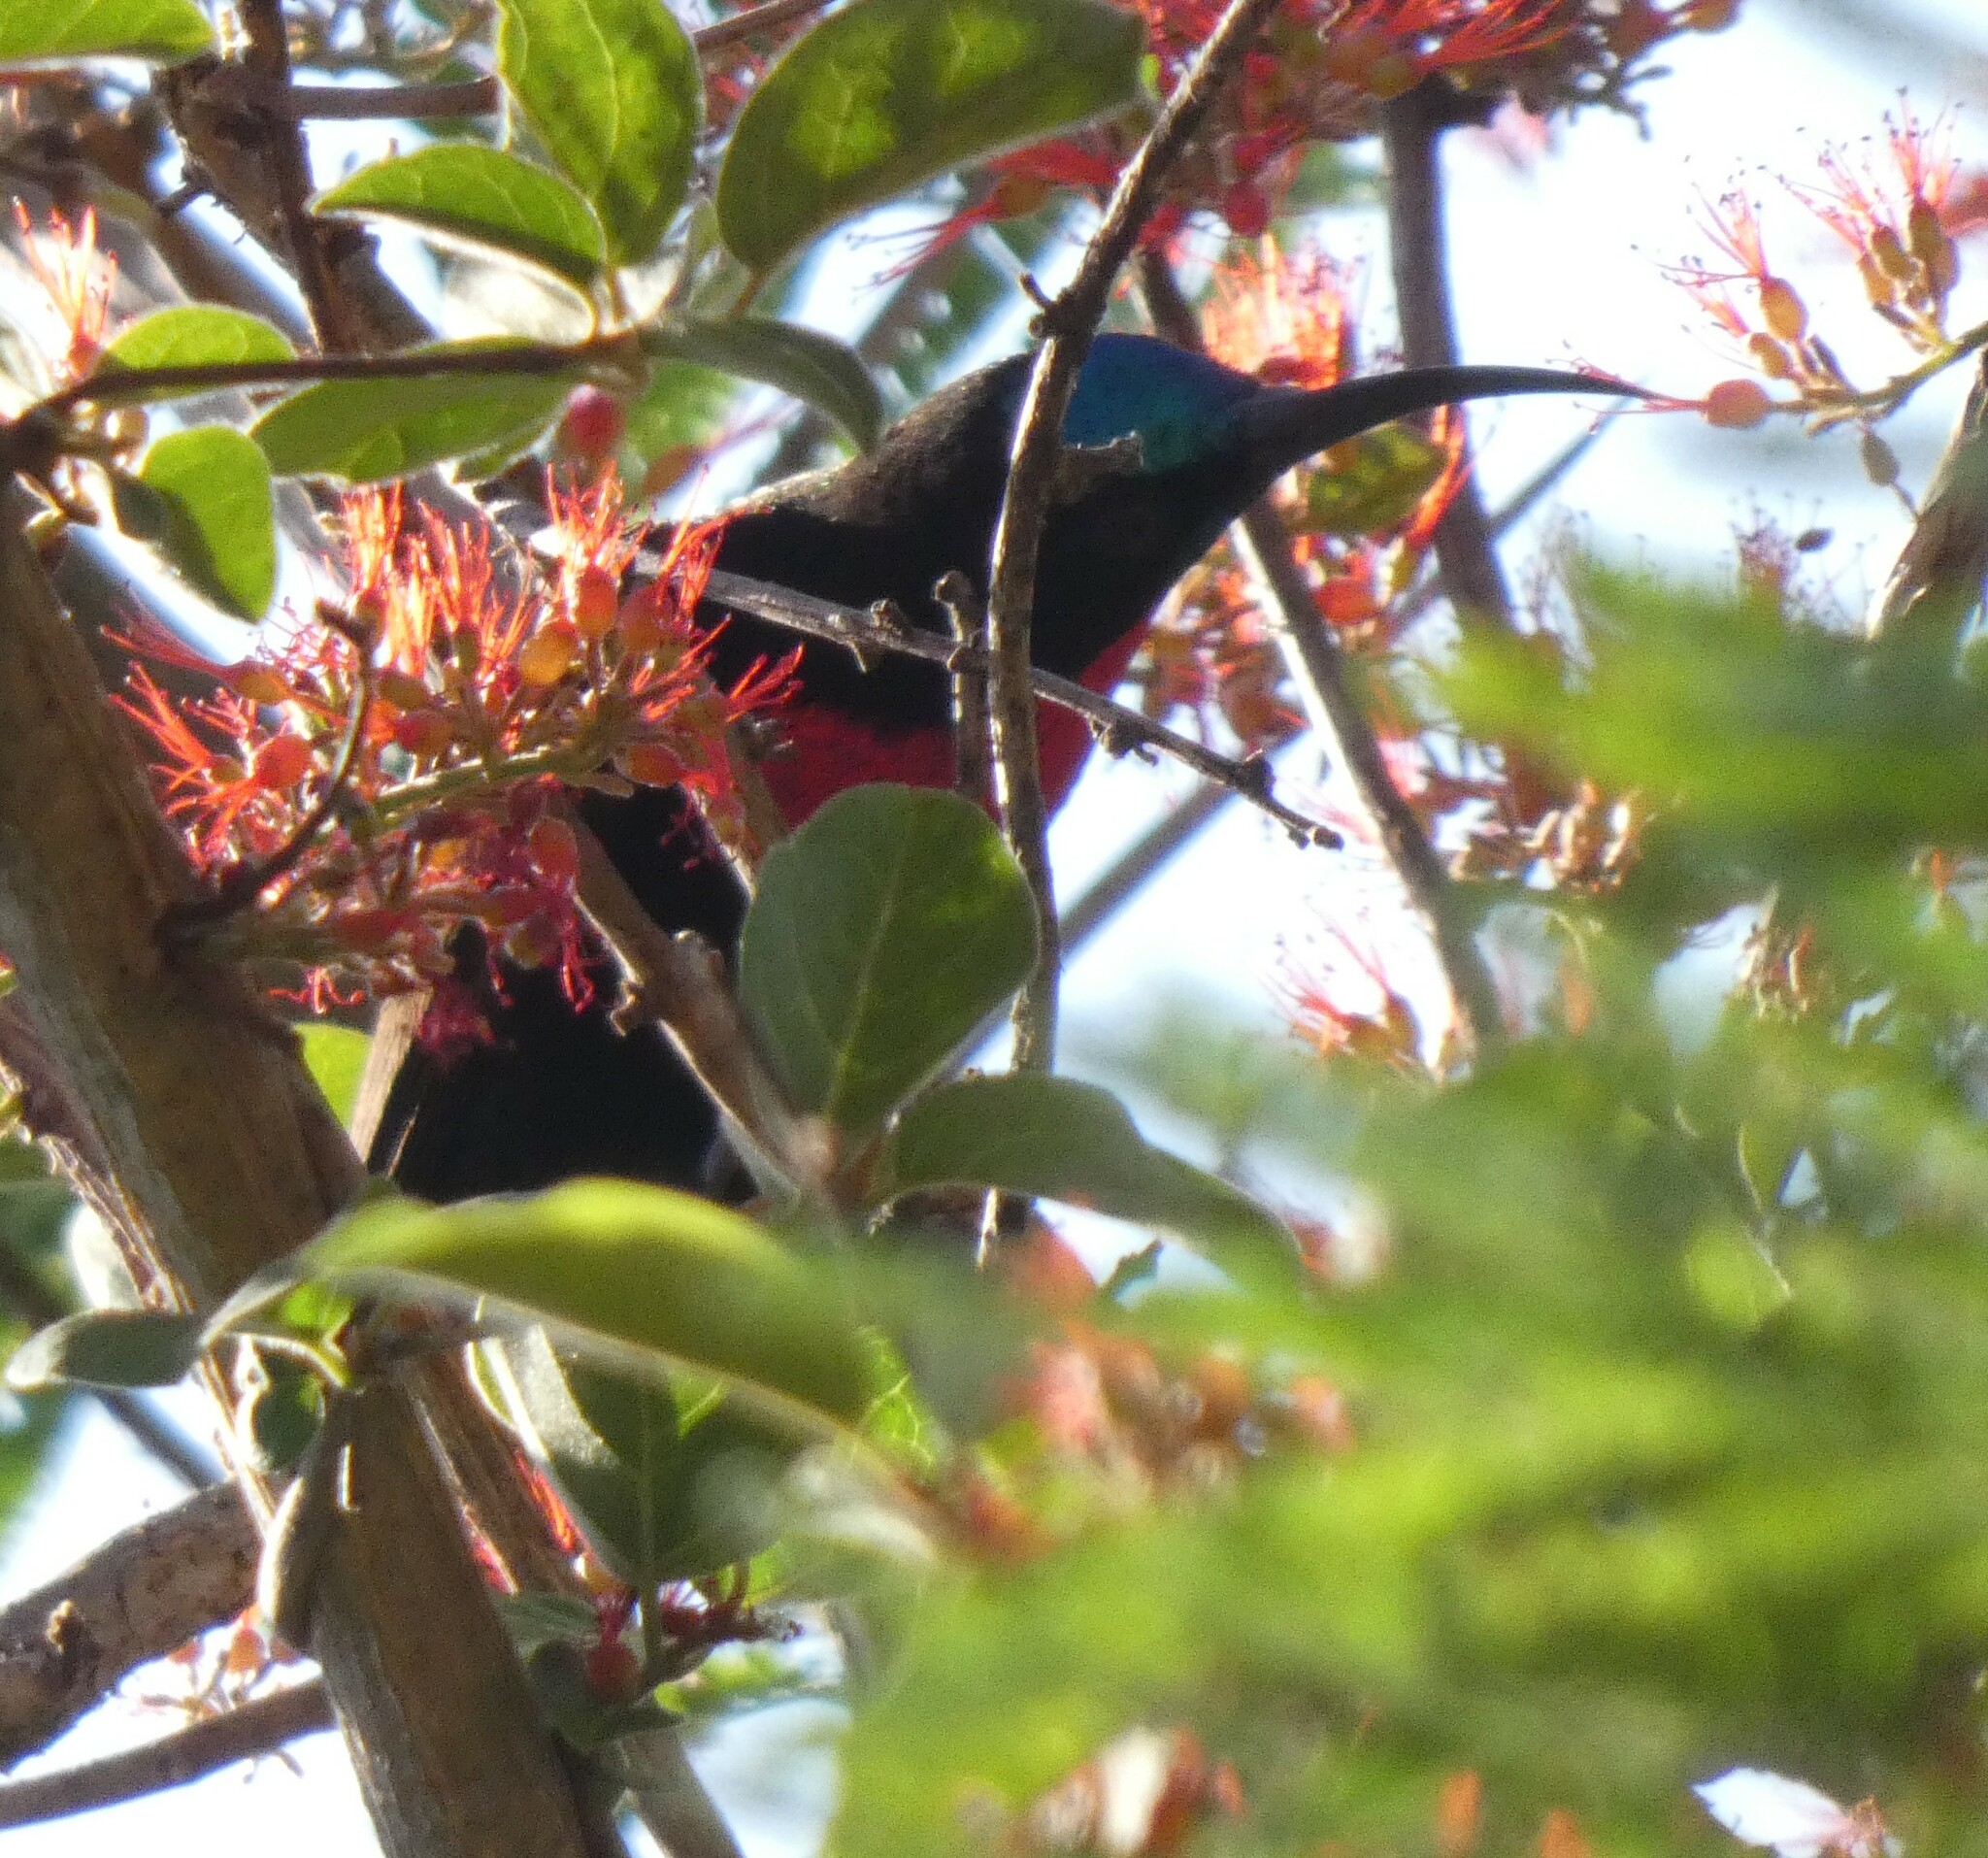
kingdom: Animalia
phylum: Chordata
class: Aves
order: Passeriformes
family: Nectariniidae
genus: Chalcomitra
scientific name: Chalcomitra senegalensis
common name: Scarlet-chested sunbird
